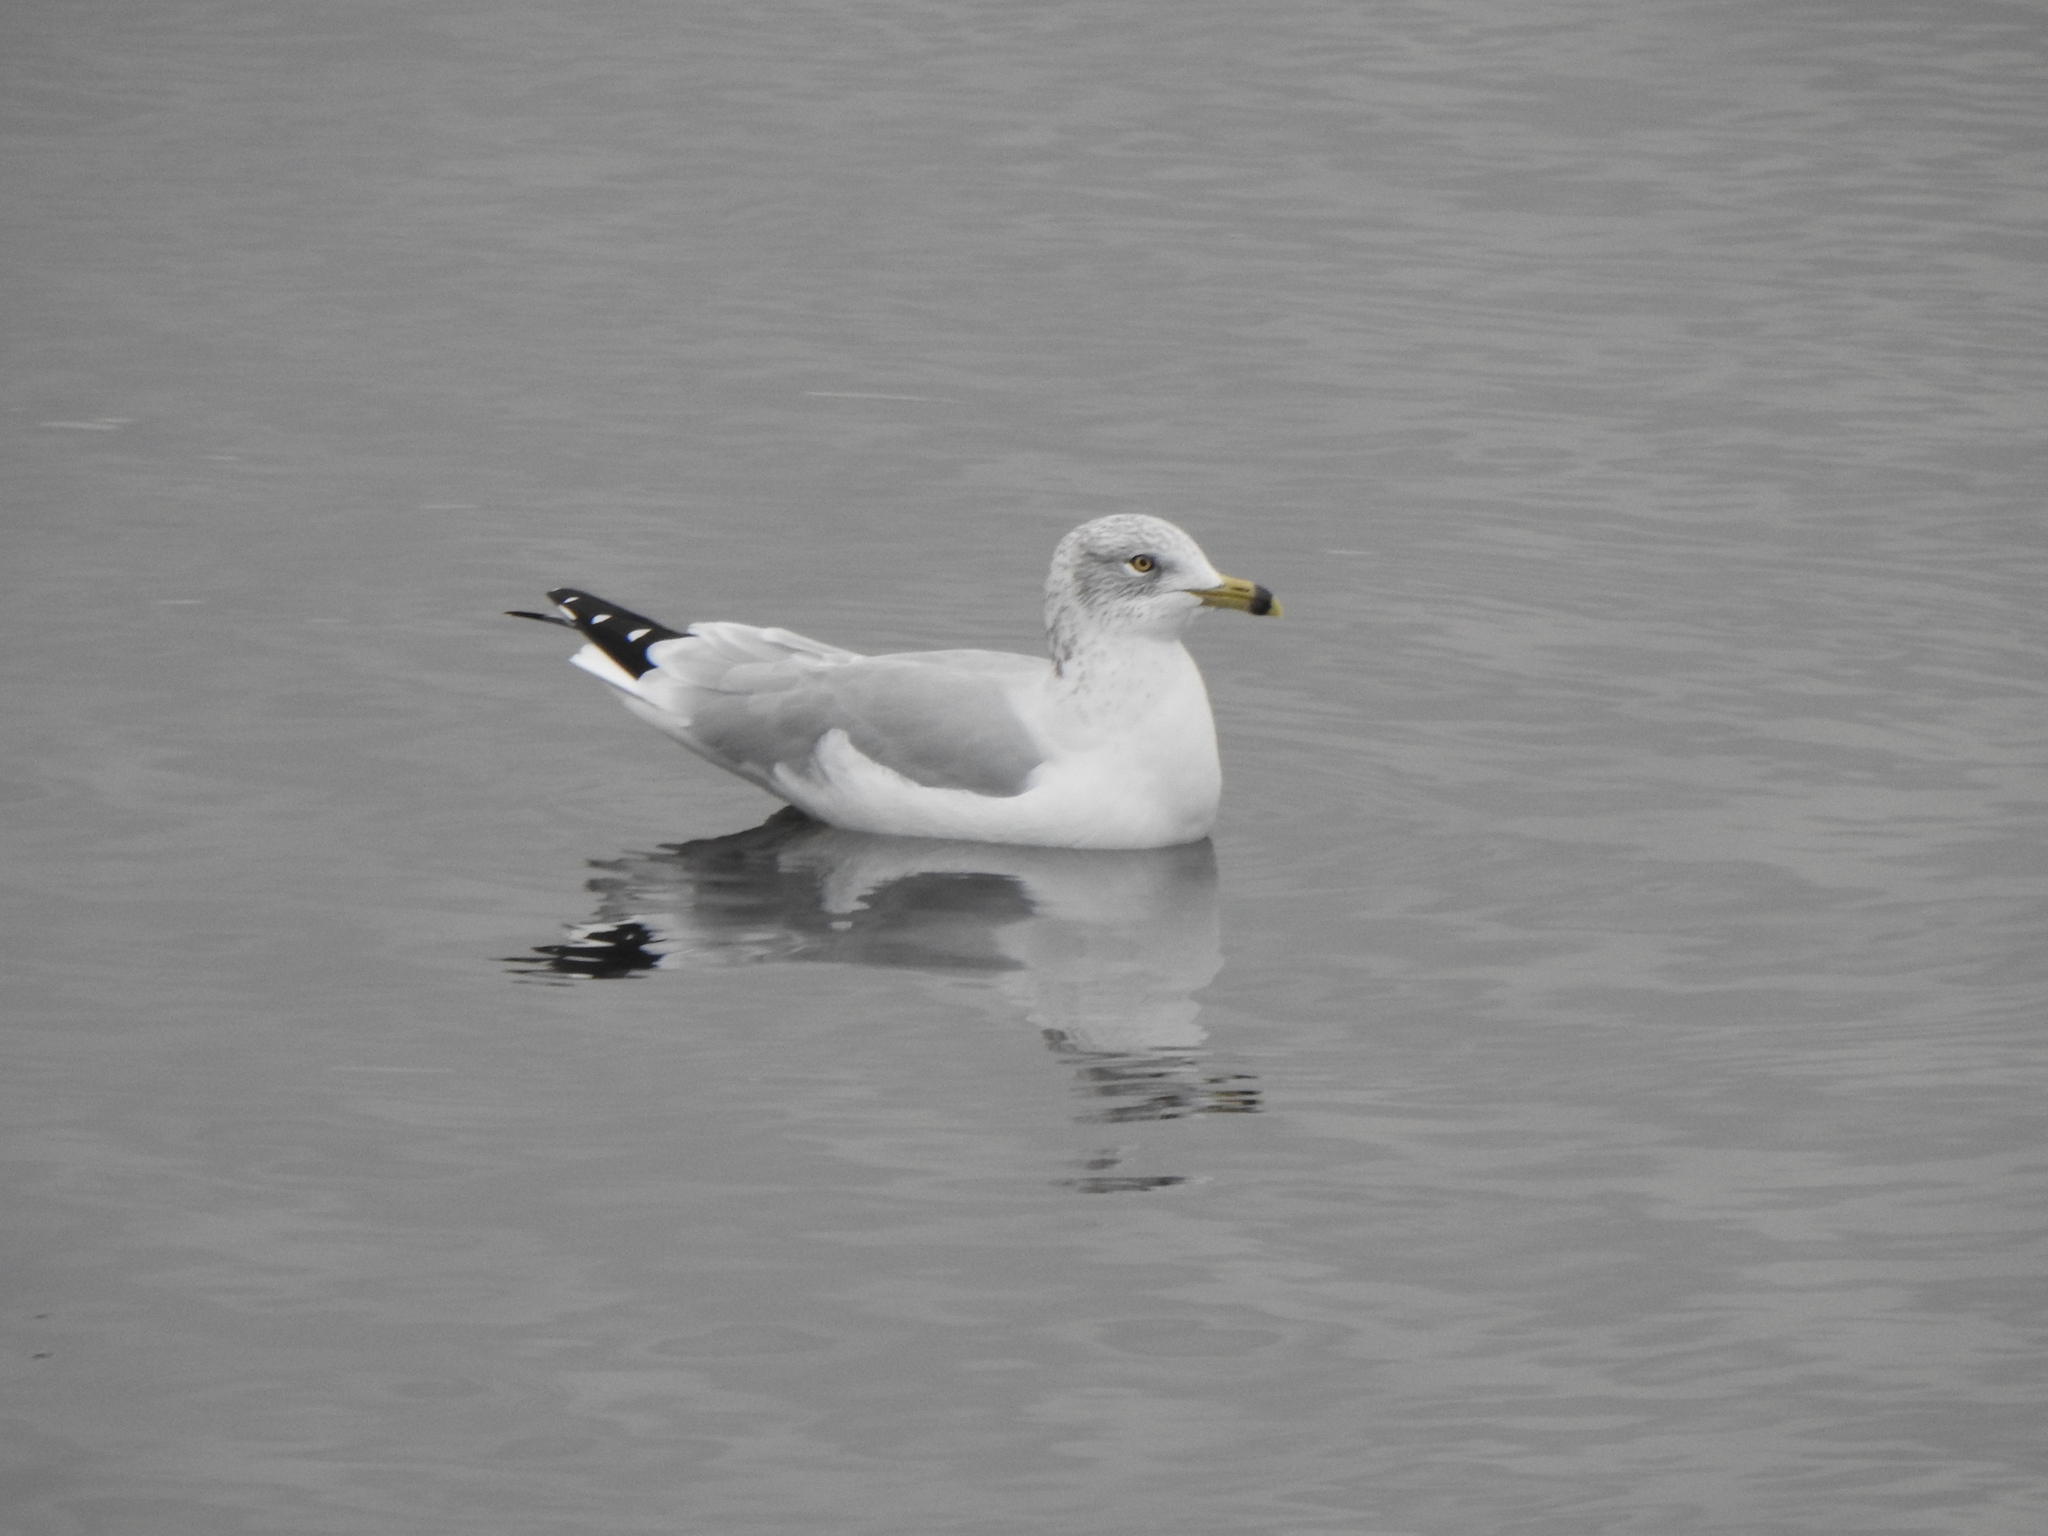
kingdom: Animalia
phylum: Chordata
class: Aves
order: Charadriiformes
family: Laridae
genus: Larus
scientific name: Larus delawarensis
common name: Ring-billed gull
